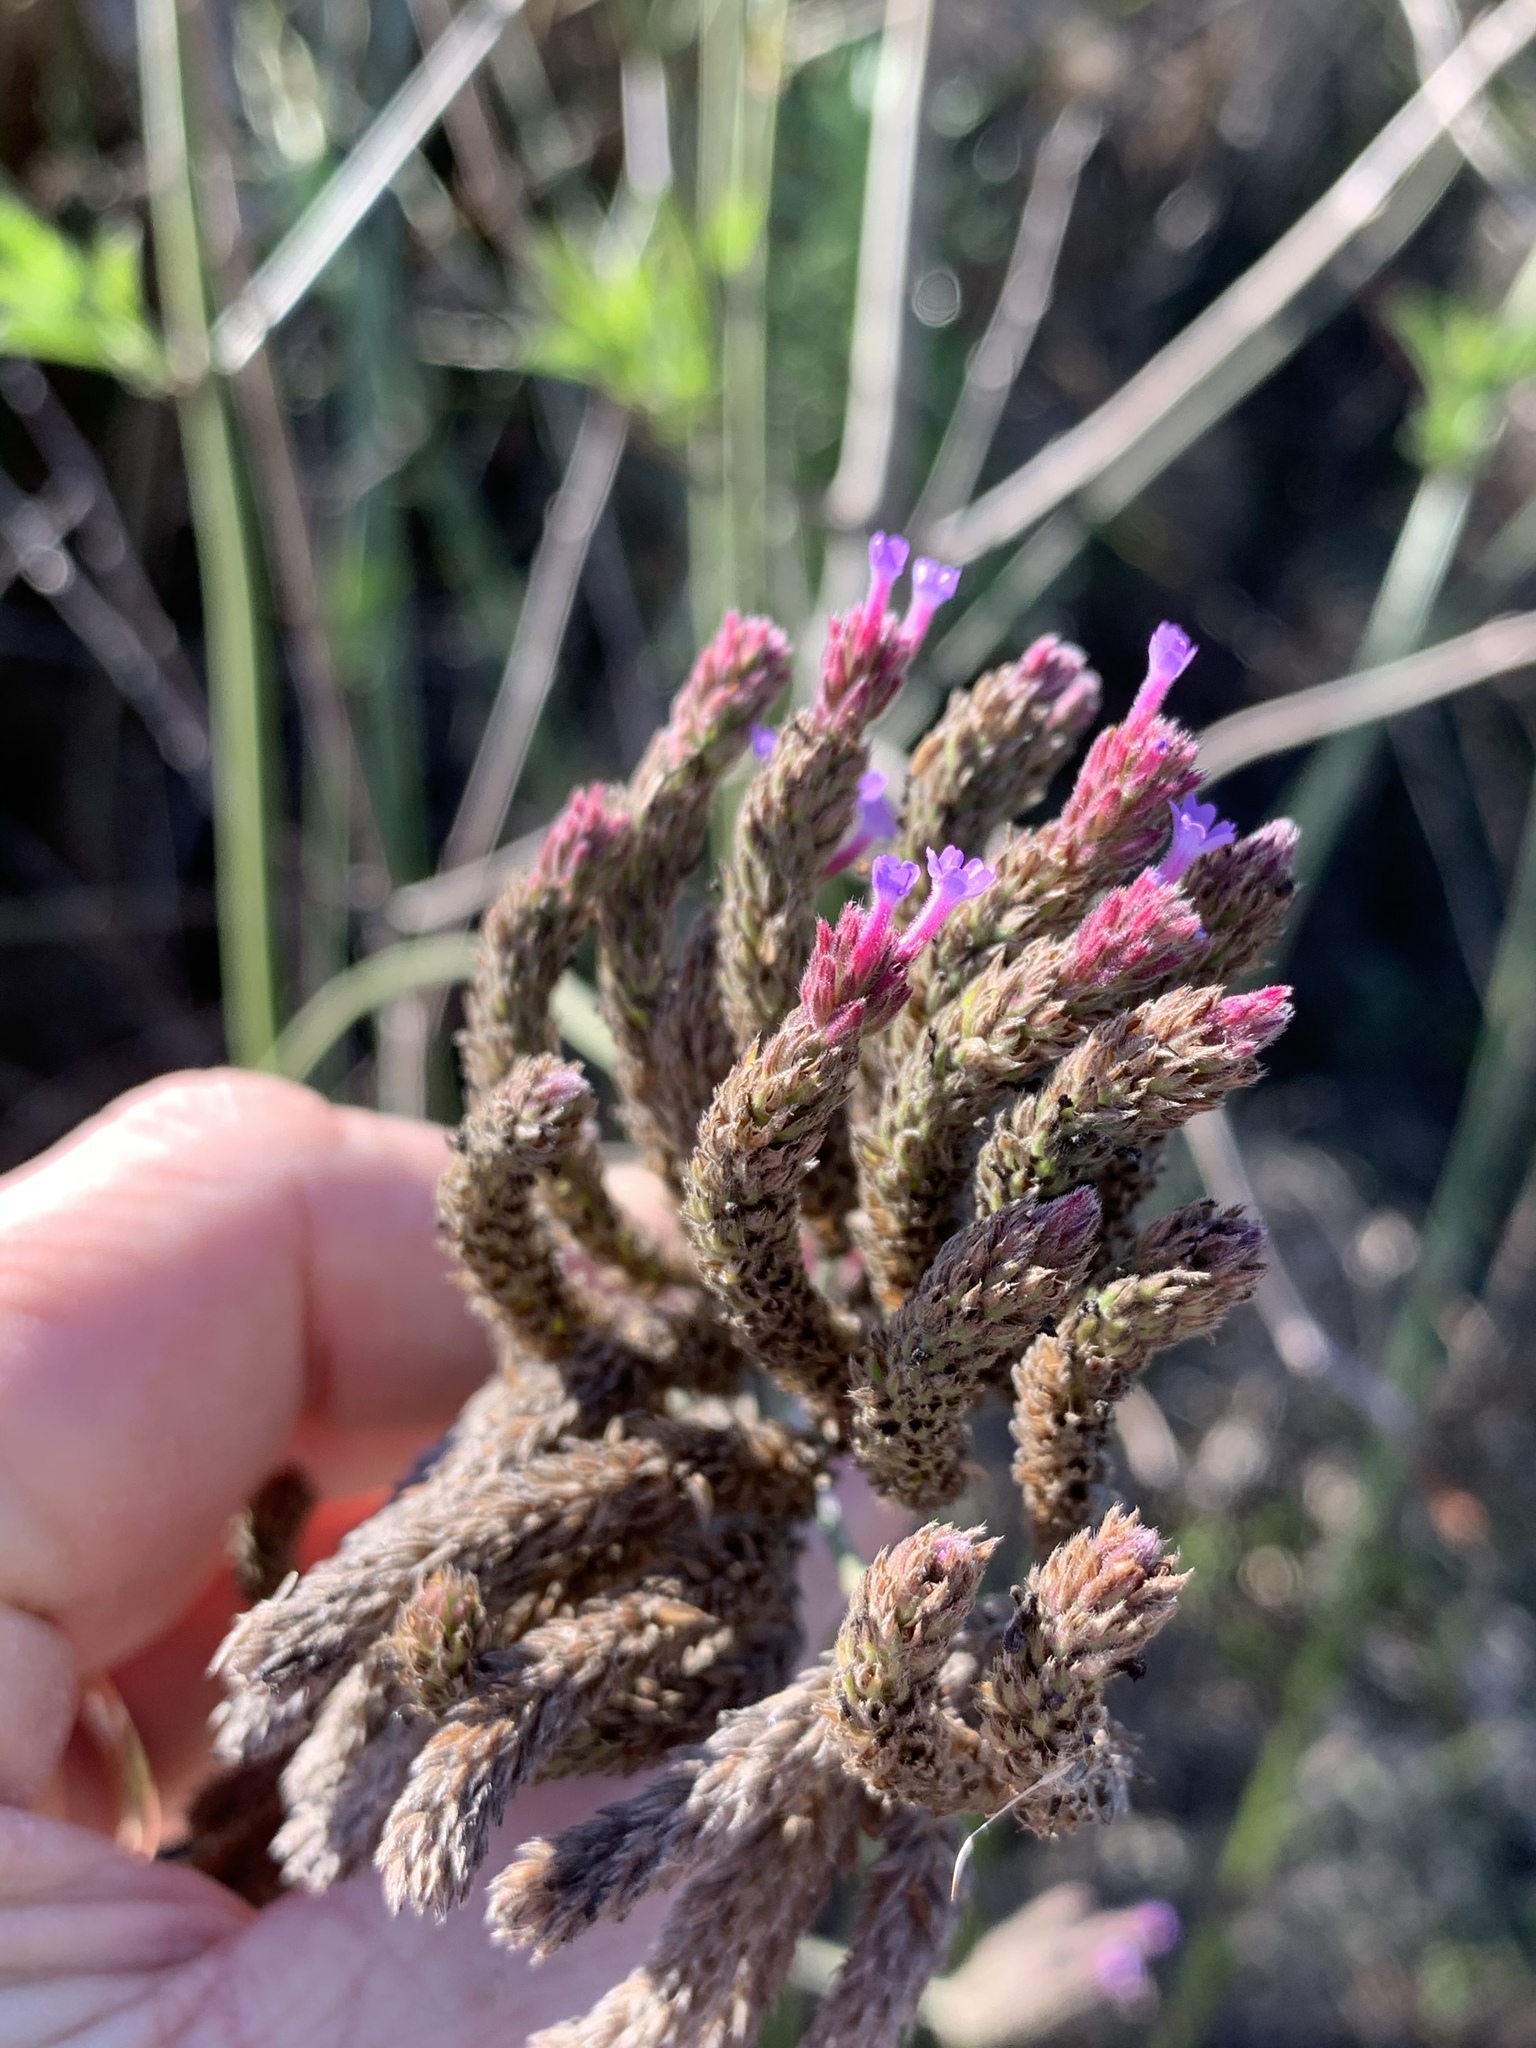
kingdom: Plantae
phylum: Tracheophyta
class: Magnoliopsida
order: Lamiales
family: Verbenaceae
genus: Verbena
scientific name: Verbena bonariensis
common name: Purpletop vervain
